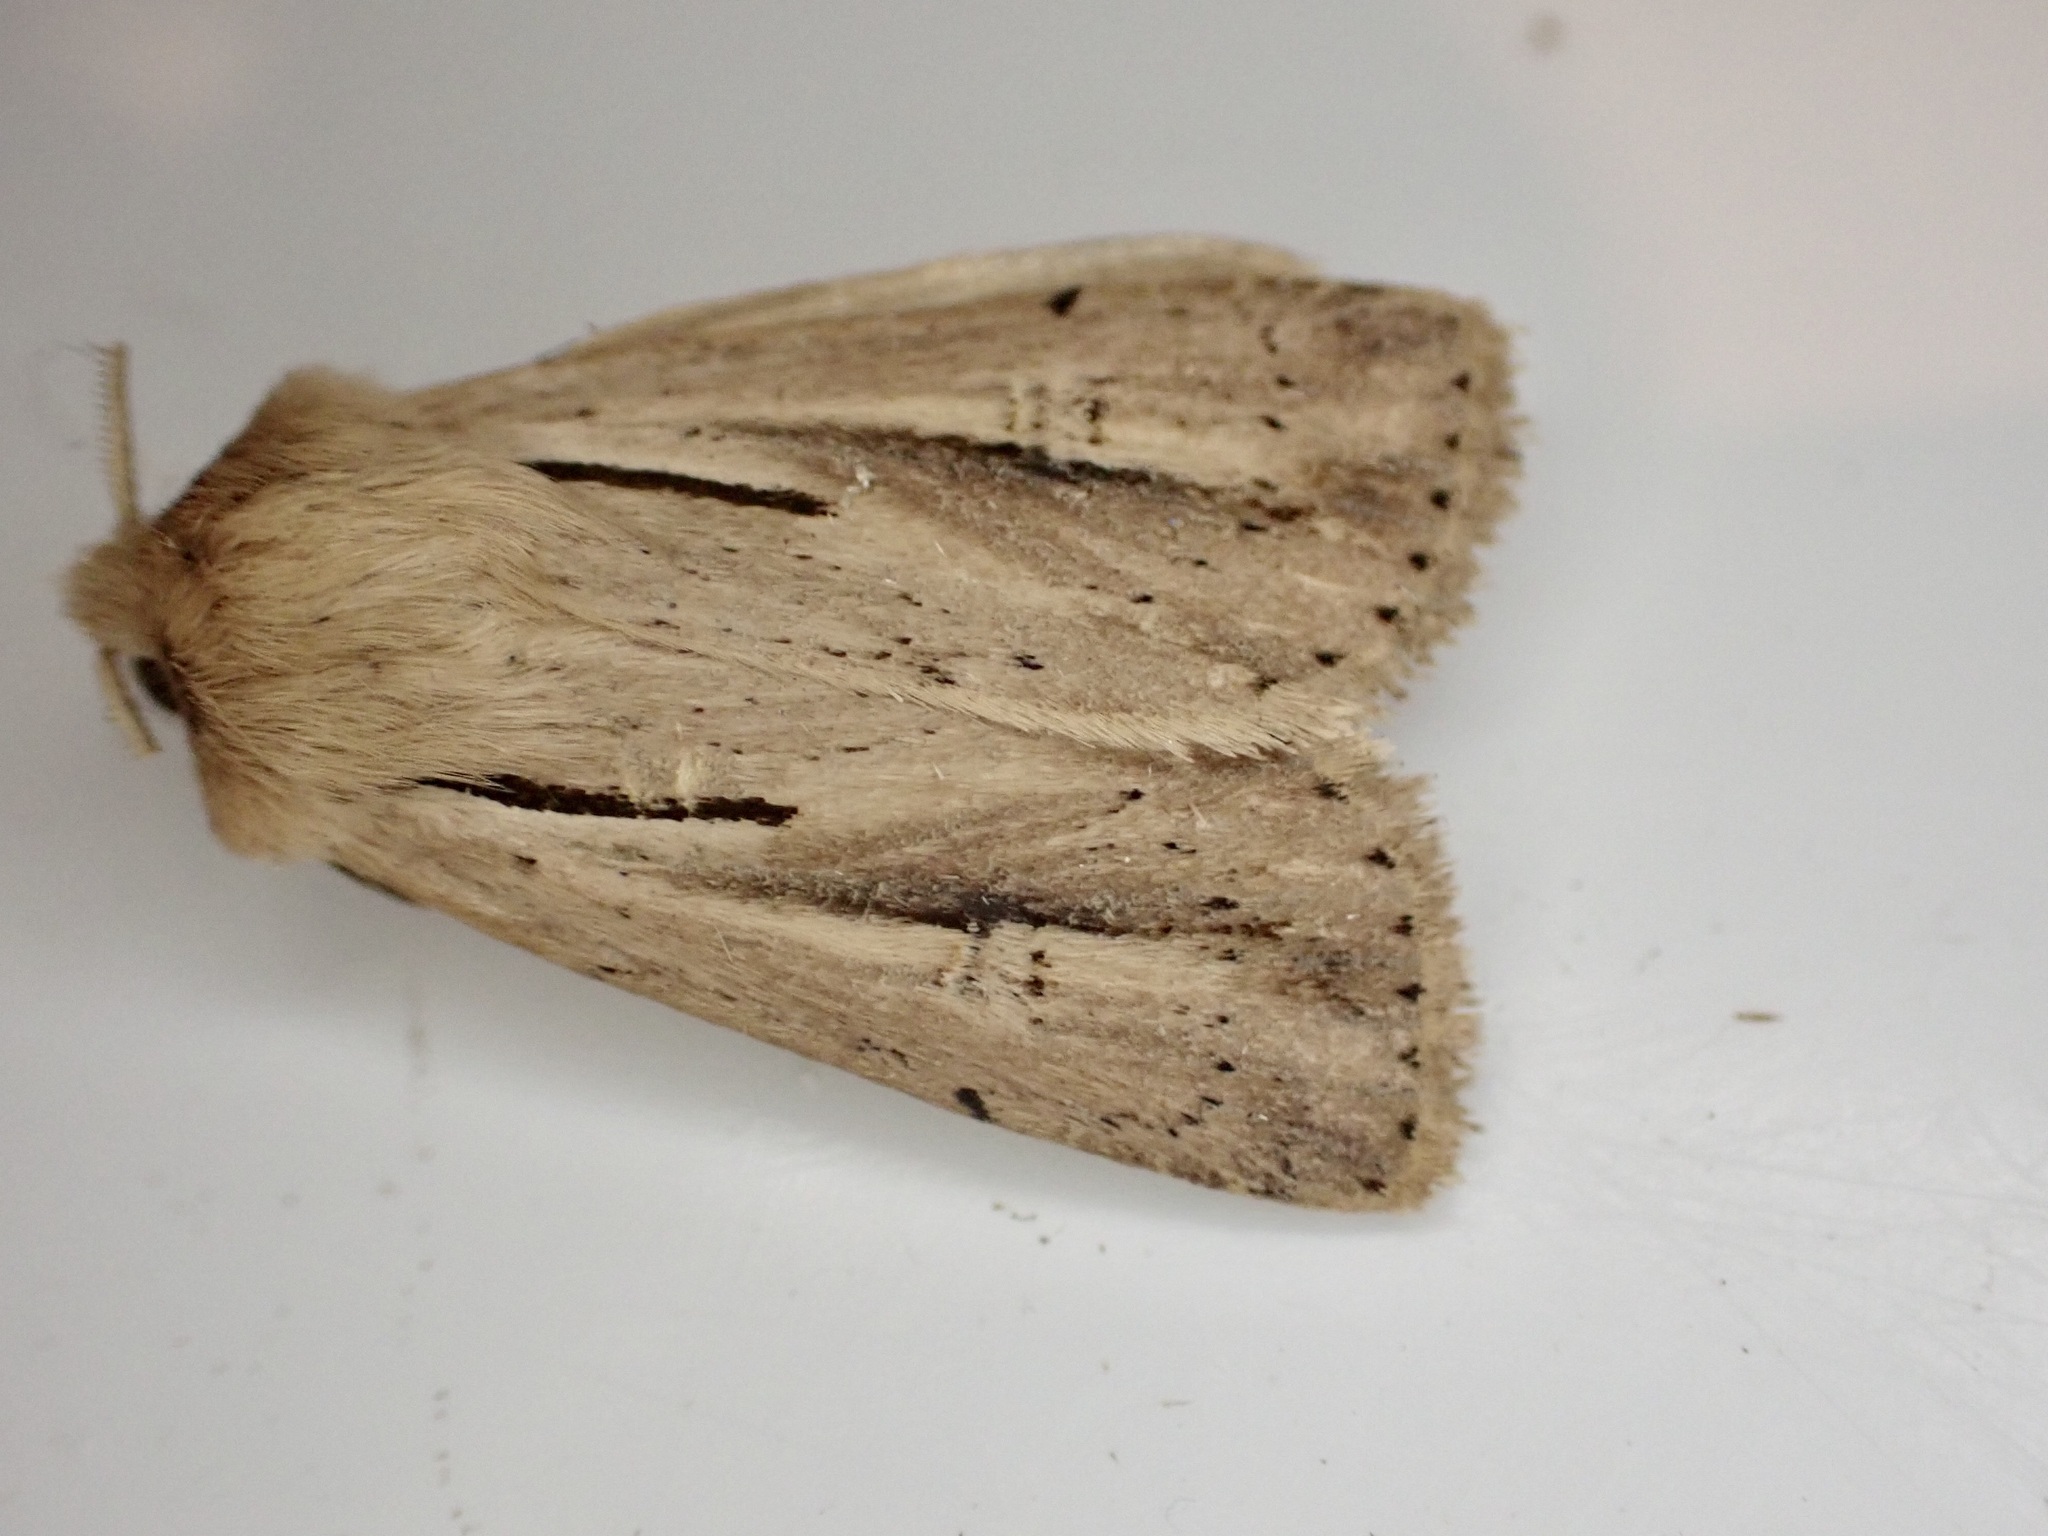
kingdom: Animalia
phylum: Arthropoda
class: Insecta
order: Lepidoptera
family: Noctuidae
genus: Ichneutica
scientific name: Ichneutica propria
